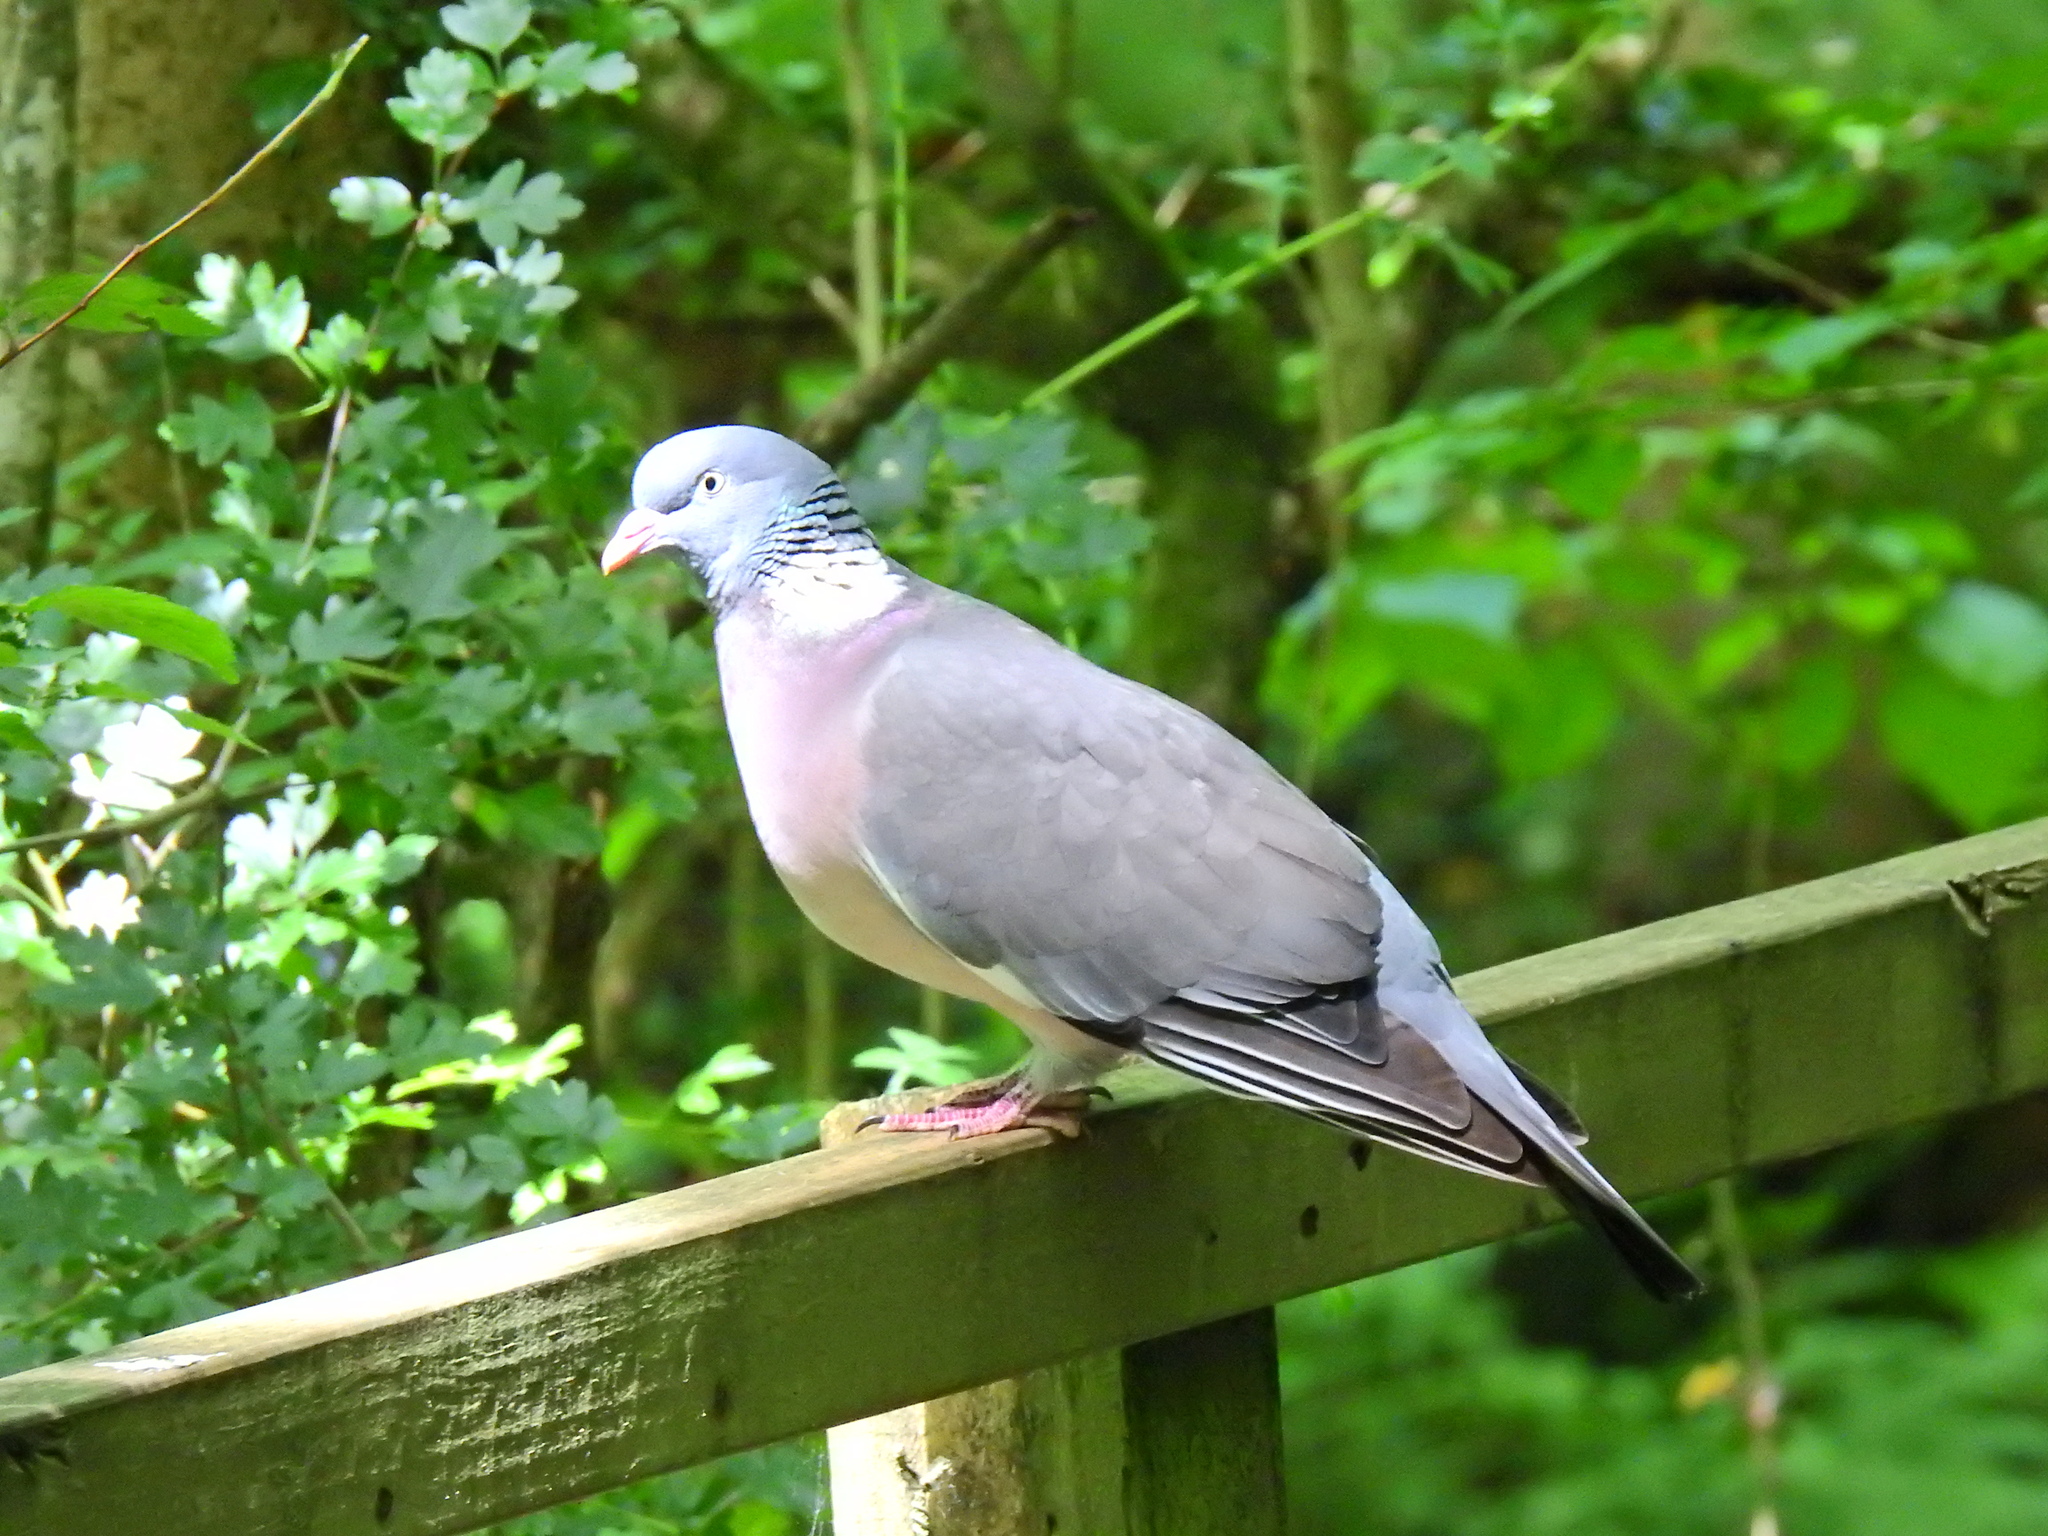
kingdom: Animalia
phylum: Chordata
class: Aves
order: Columbiformes
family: Columbidae
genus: Columba
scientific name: Columba palumbus
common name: Common wood pigeon
